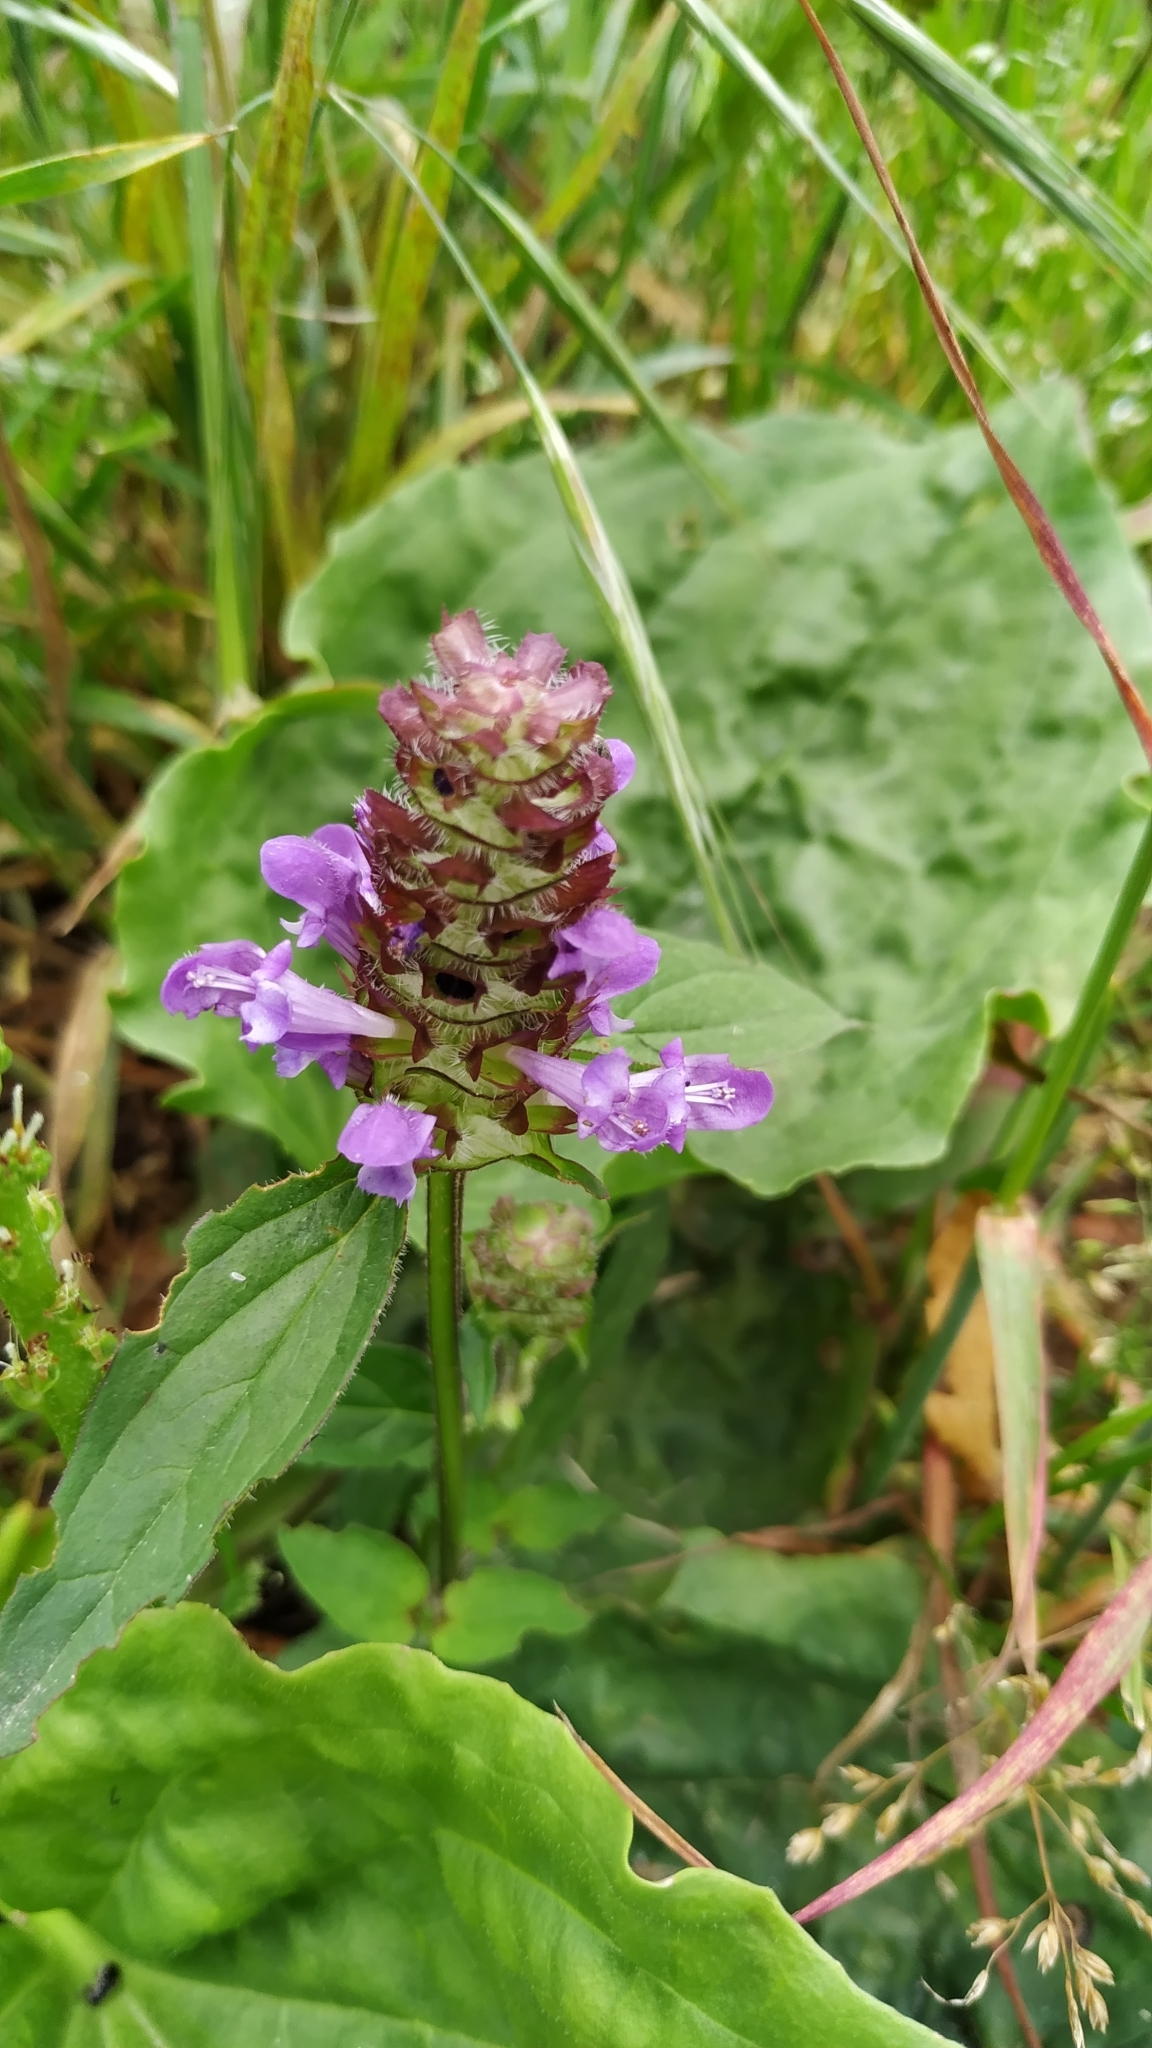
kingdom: Plantae
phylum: Tracheophyta
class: Magnoliopsida
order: Lamiales
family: Lamiaceae
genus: Prunella
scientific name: Prunella vulgaris
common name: Heal-all
